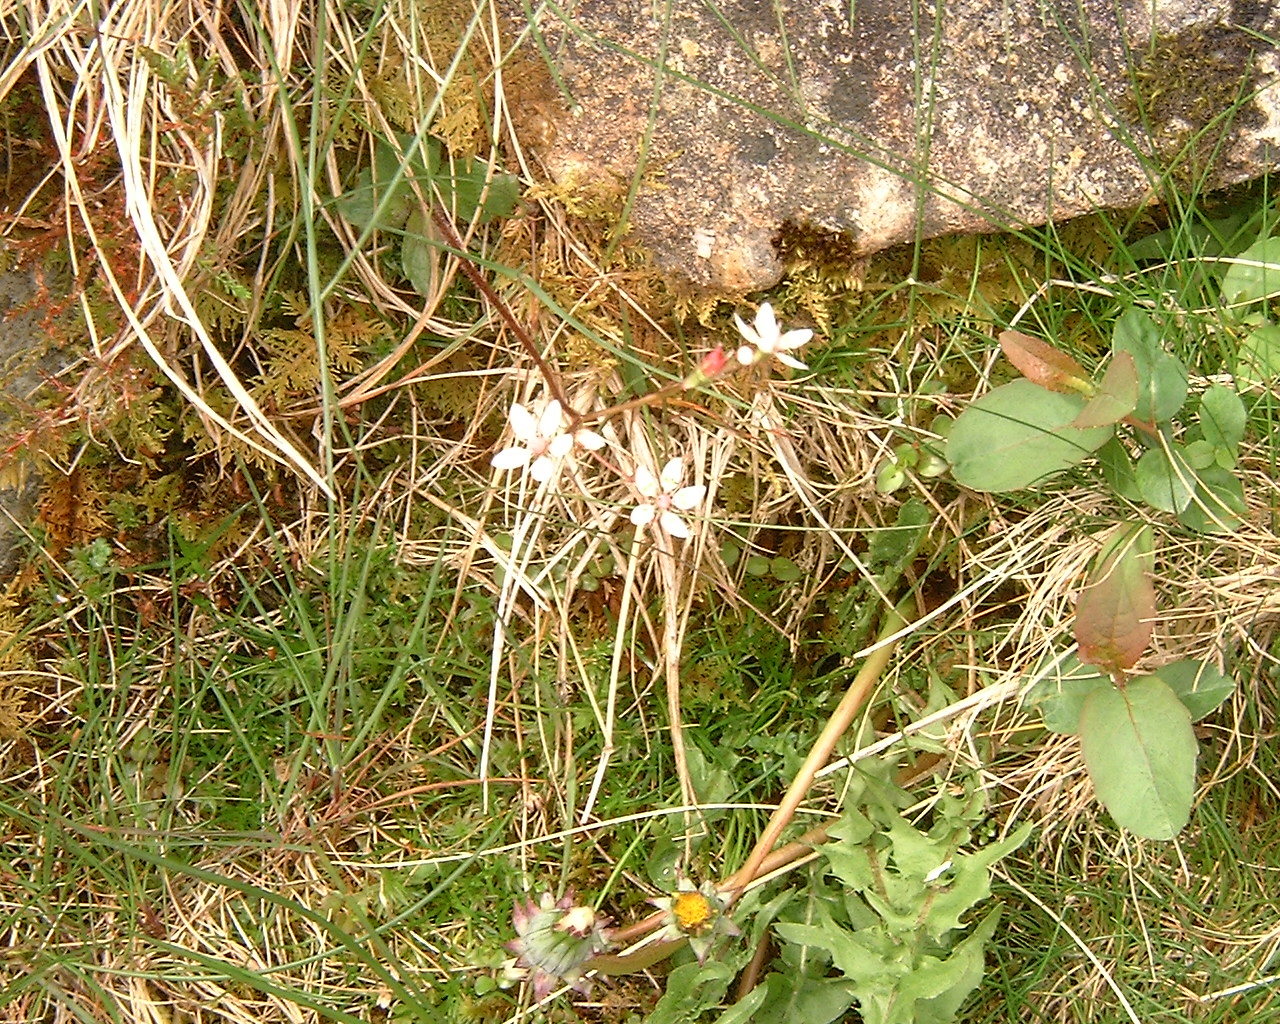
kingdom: Plantae
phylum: Tracheophyta
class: Magnoliopsida
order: Saxifragales
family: Saxifragaceae
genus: Micranthes
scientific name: Micranthes stellaris
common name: Starry saxifrage
